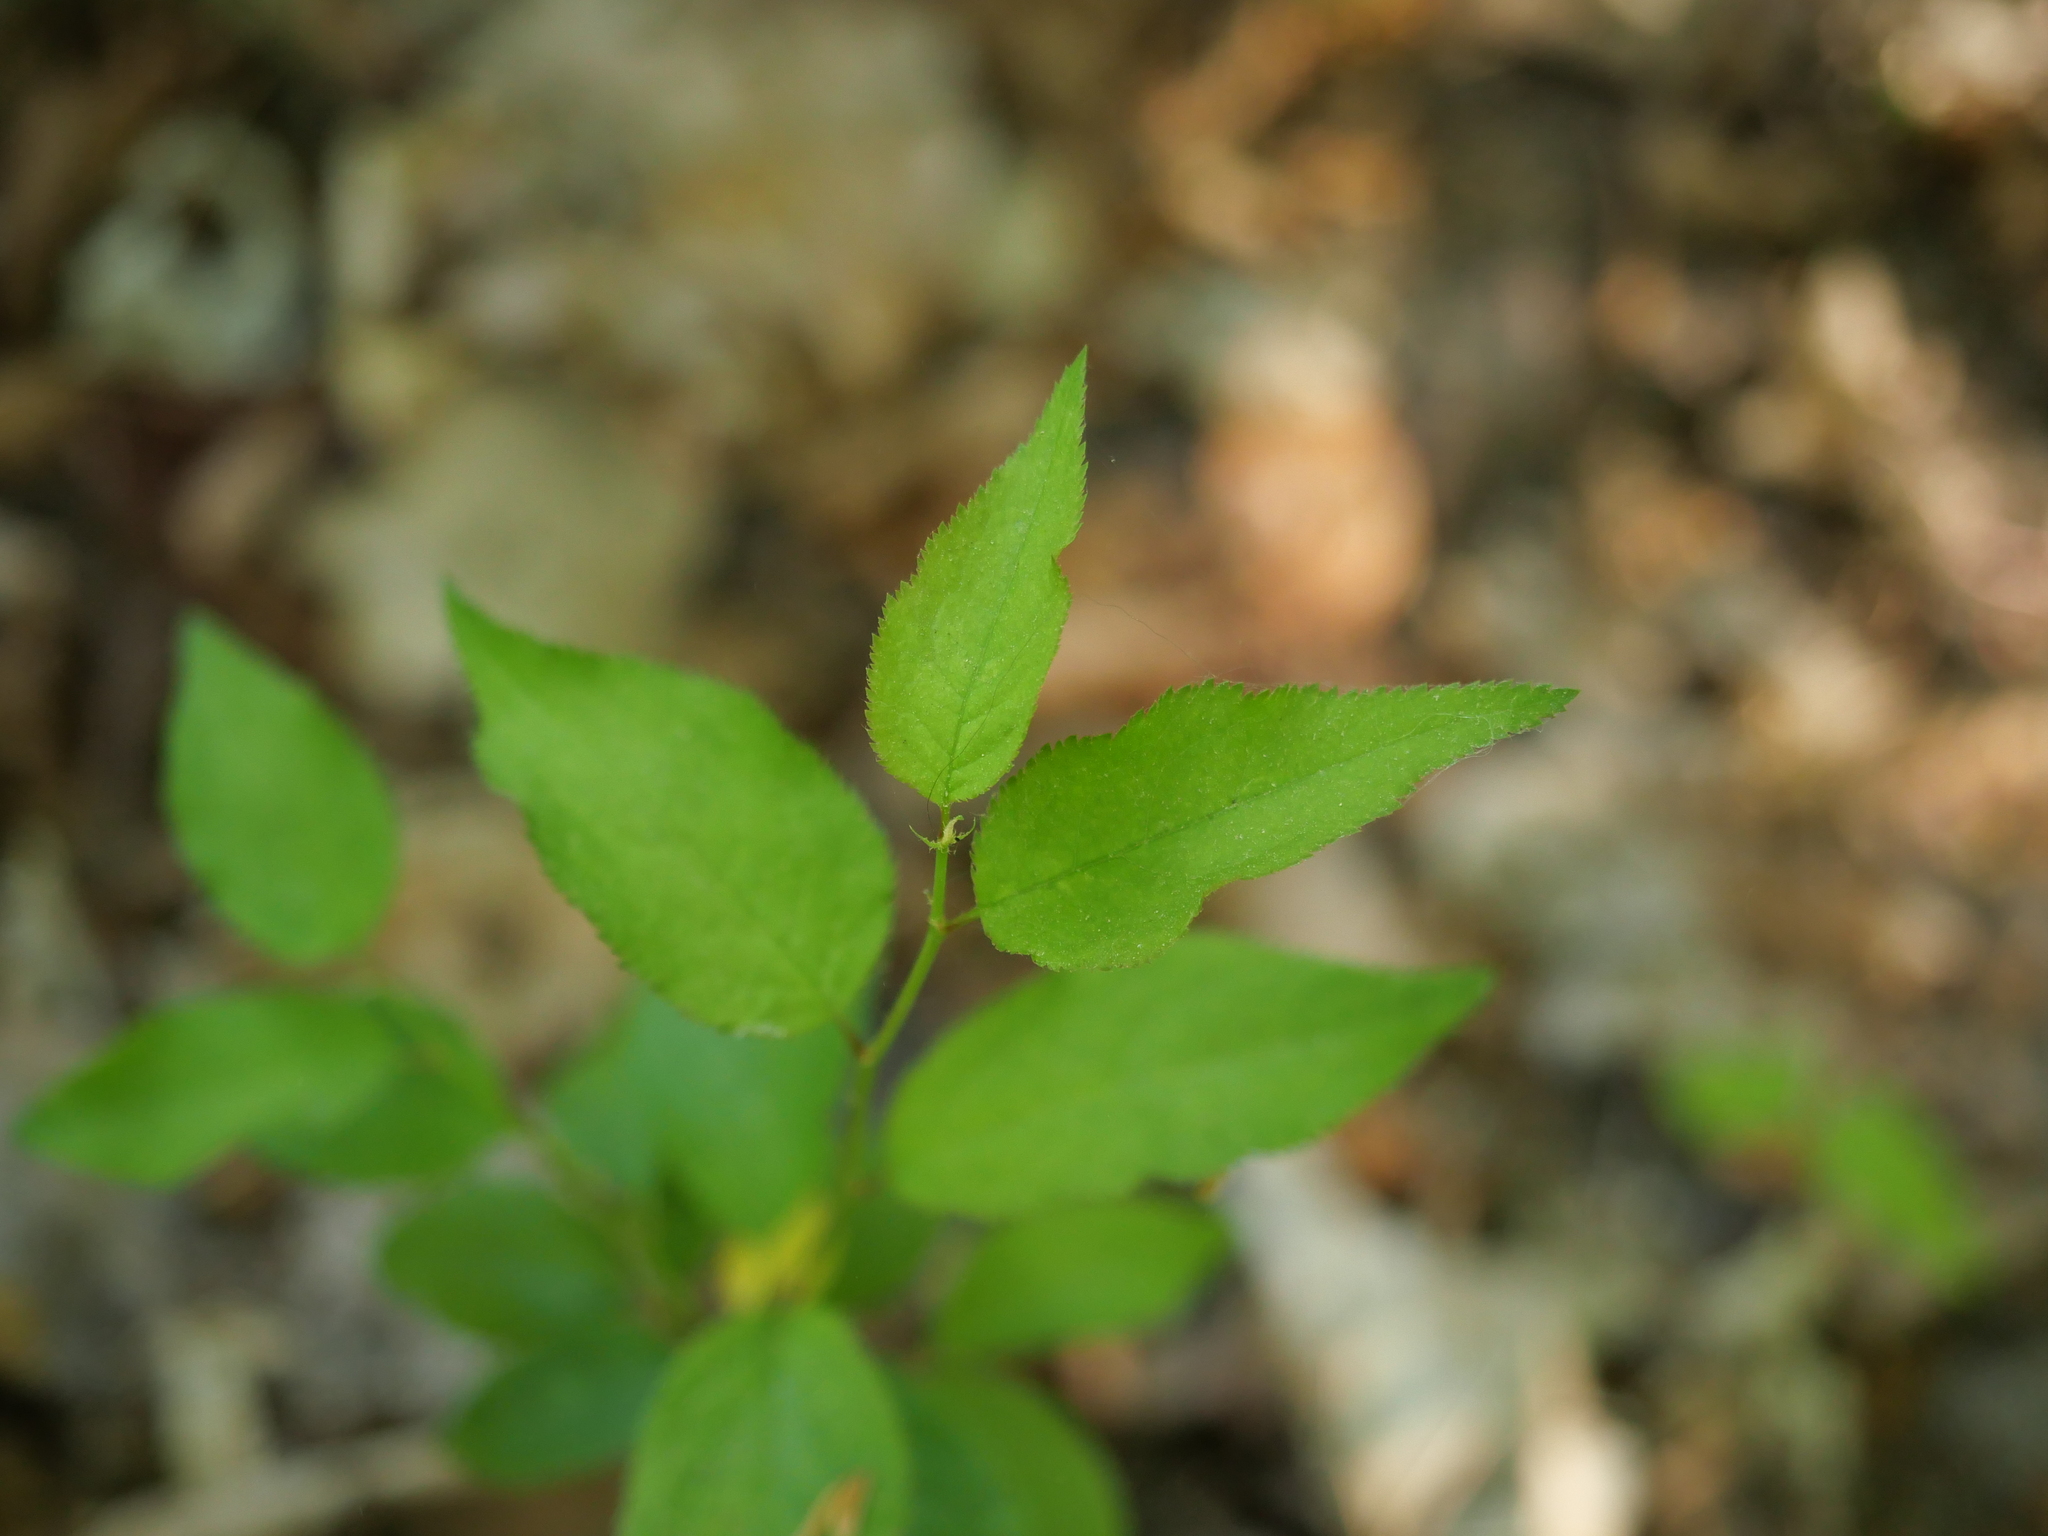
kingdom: Plantae
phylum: Tracheophyta
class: Magnoliopsida
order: Rosales
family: Rosaceae
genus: Prunus
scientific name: Prunus cerasifera
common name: Cherry plum
